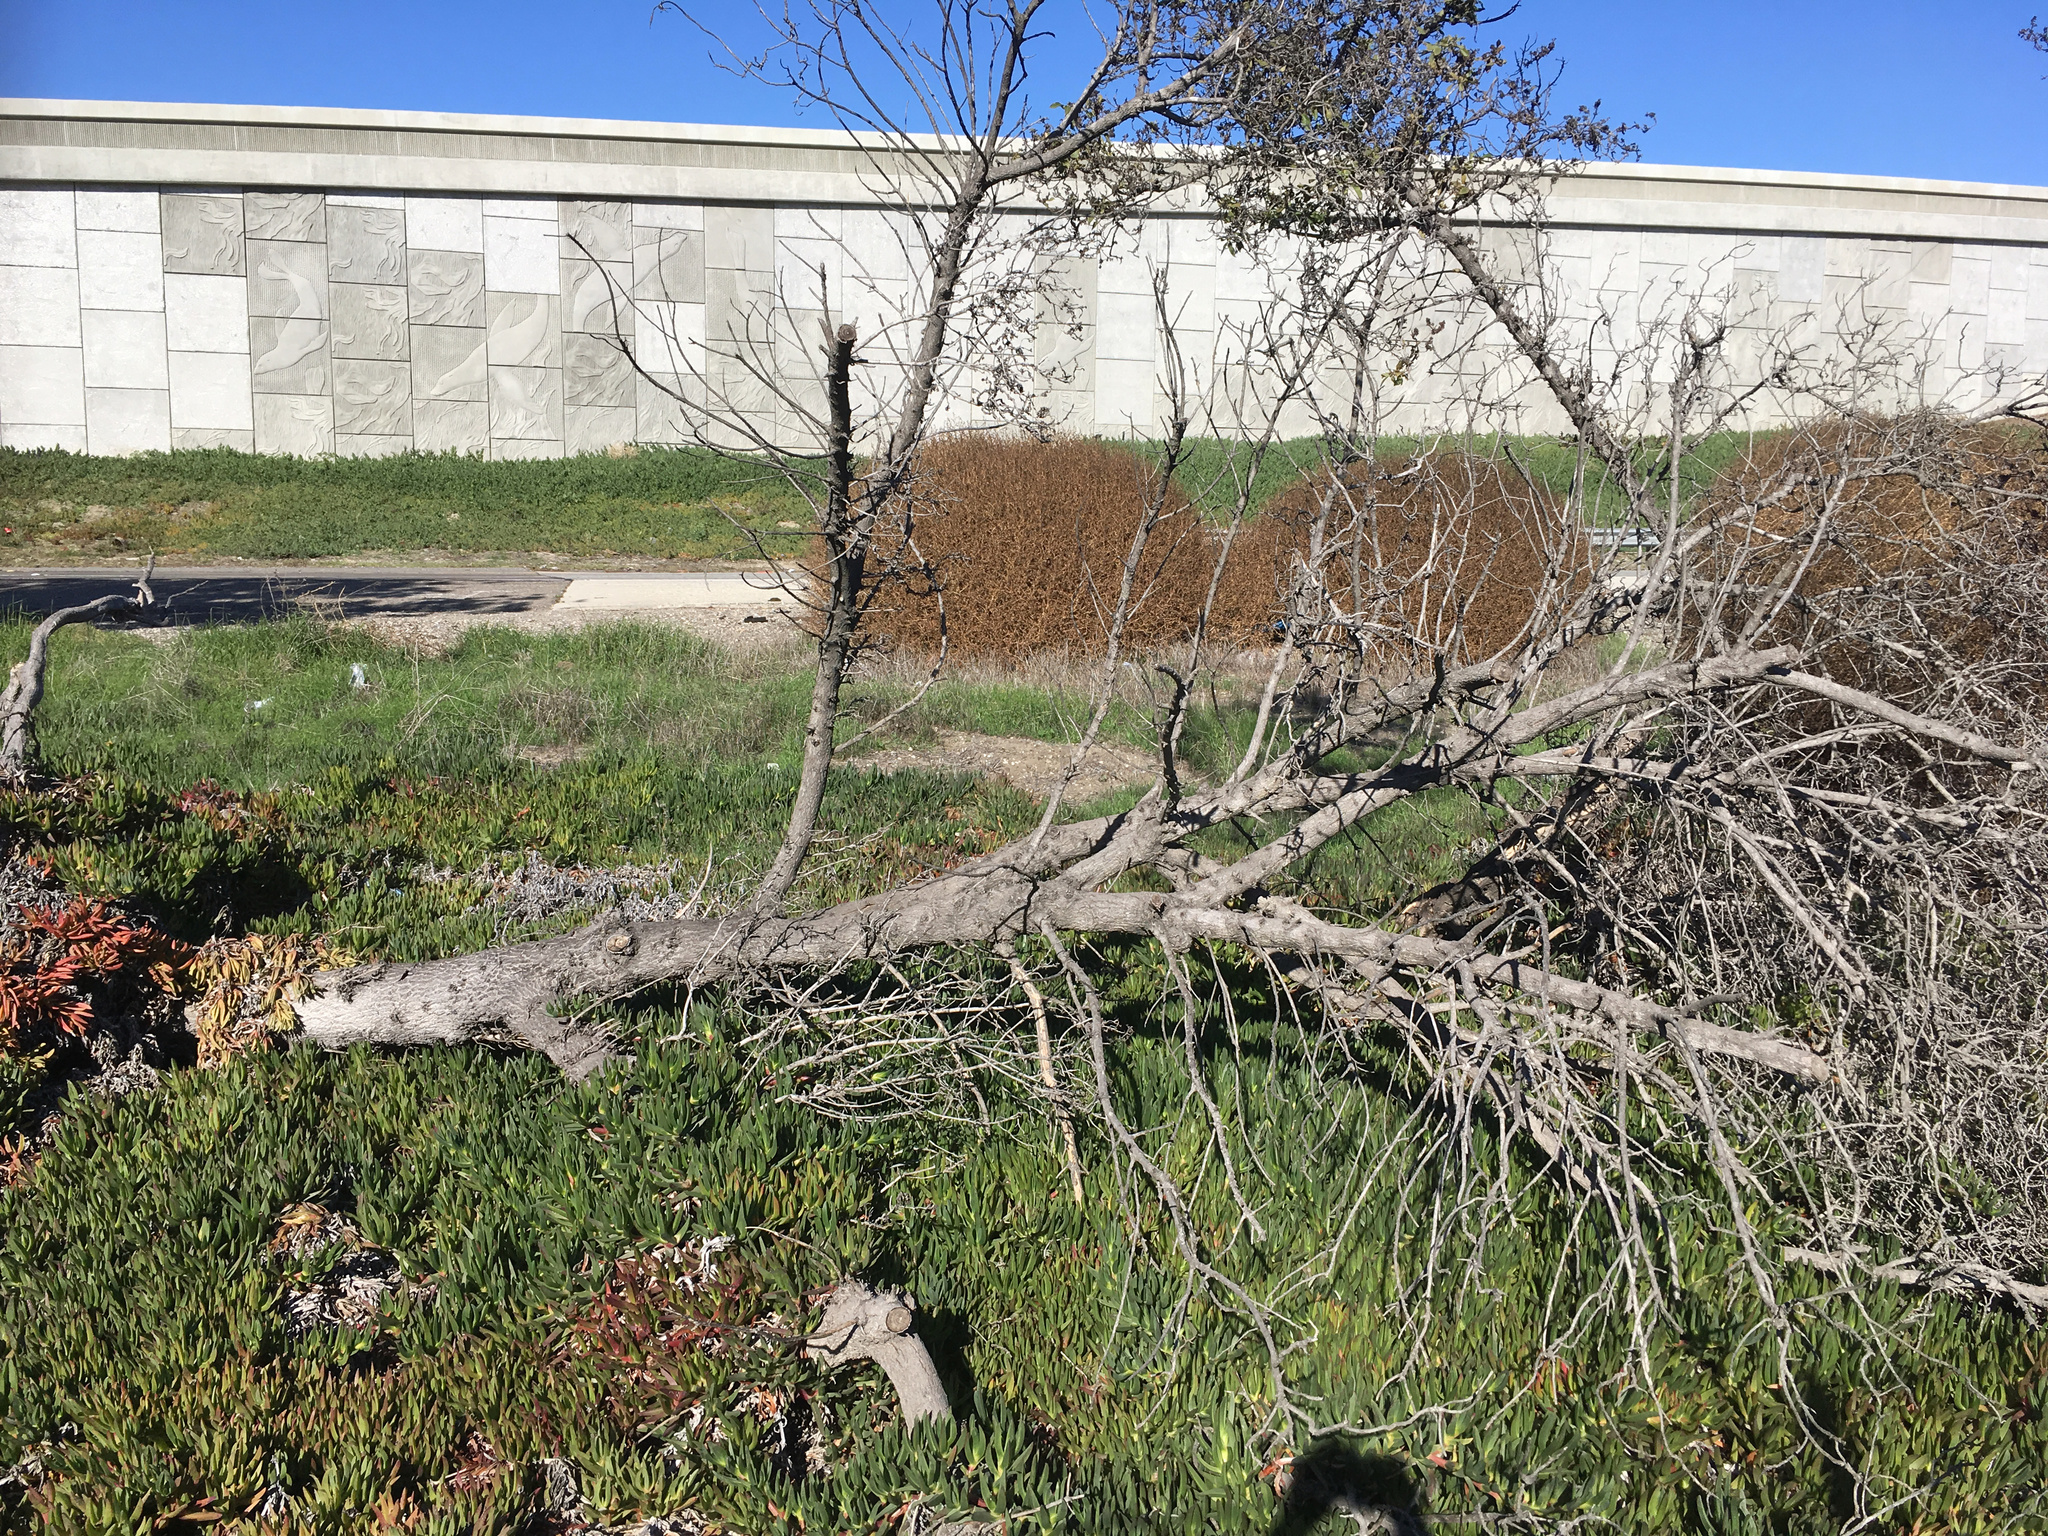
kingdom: Plantae
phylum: Tracheophyta
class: Magnoliopsida
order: Lamiales
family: Scrophulariaceae
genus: Myoporum
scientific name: Myoporum laetum
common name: Ngaio tree
